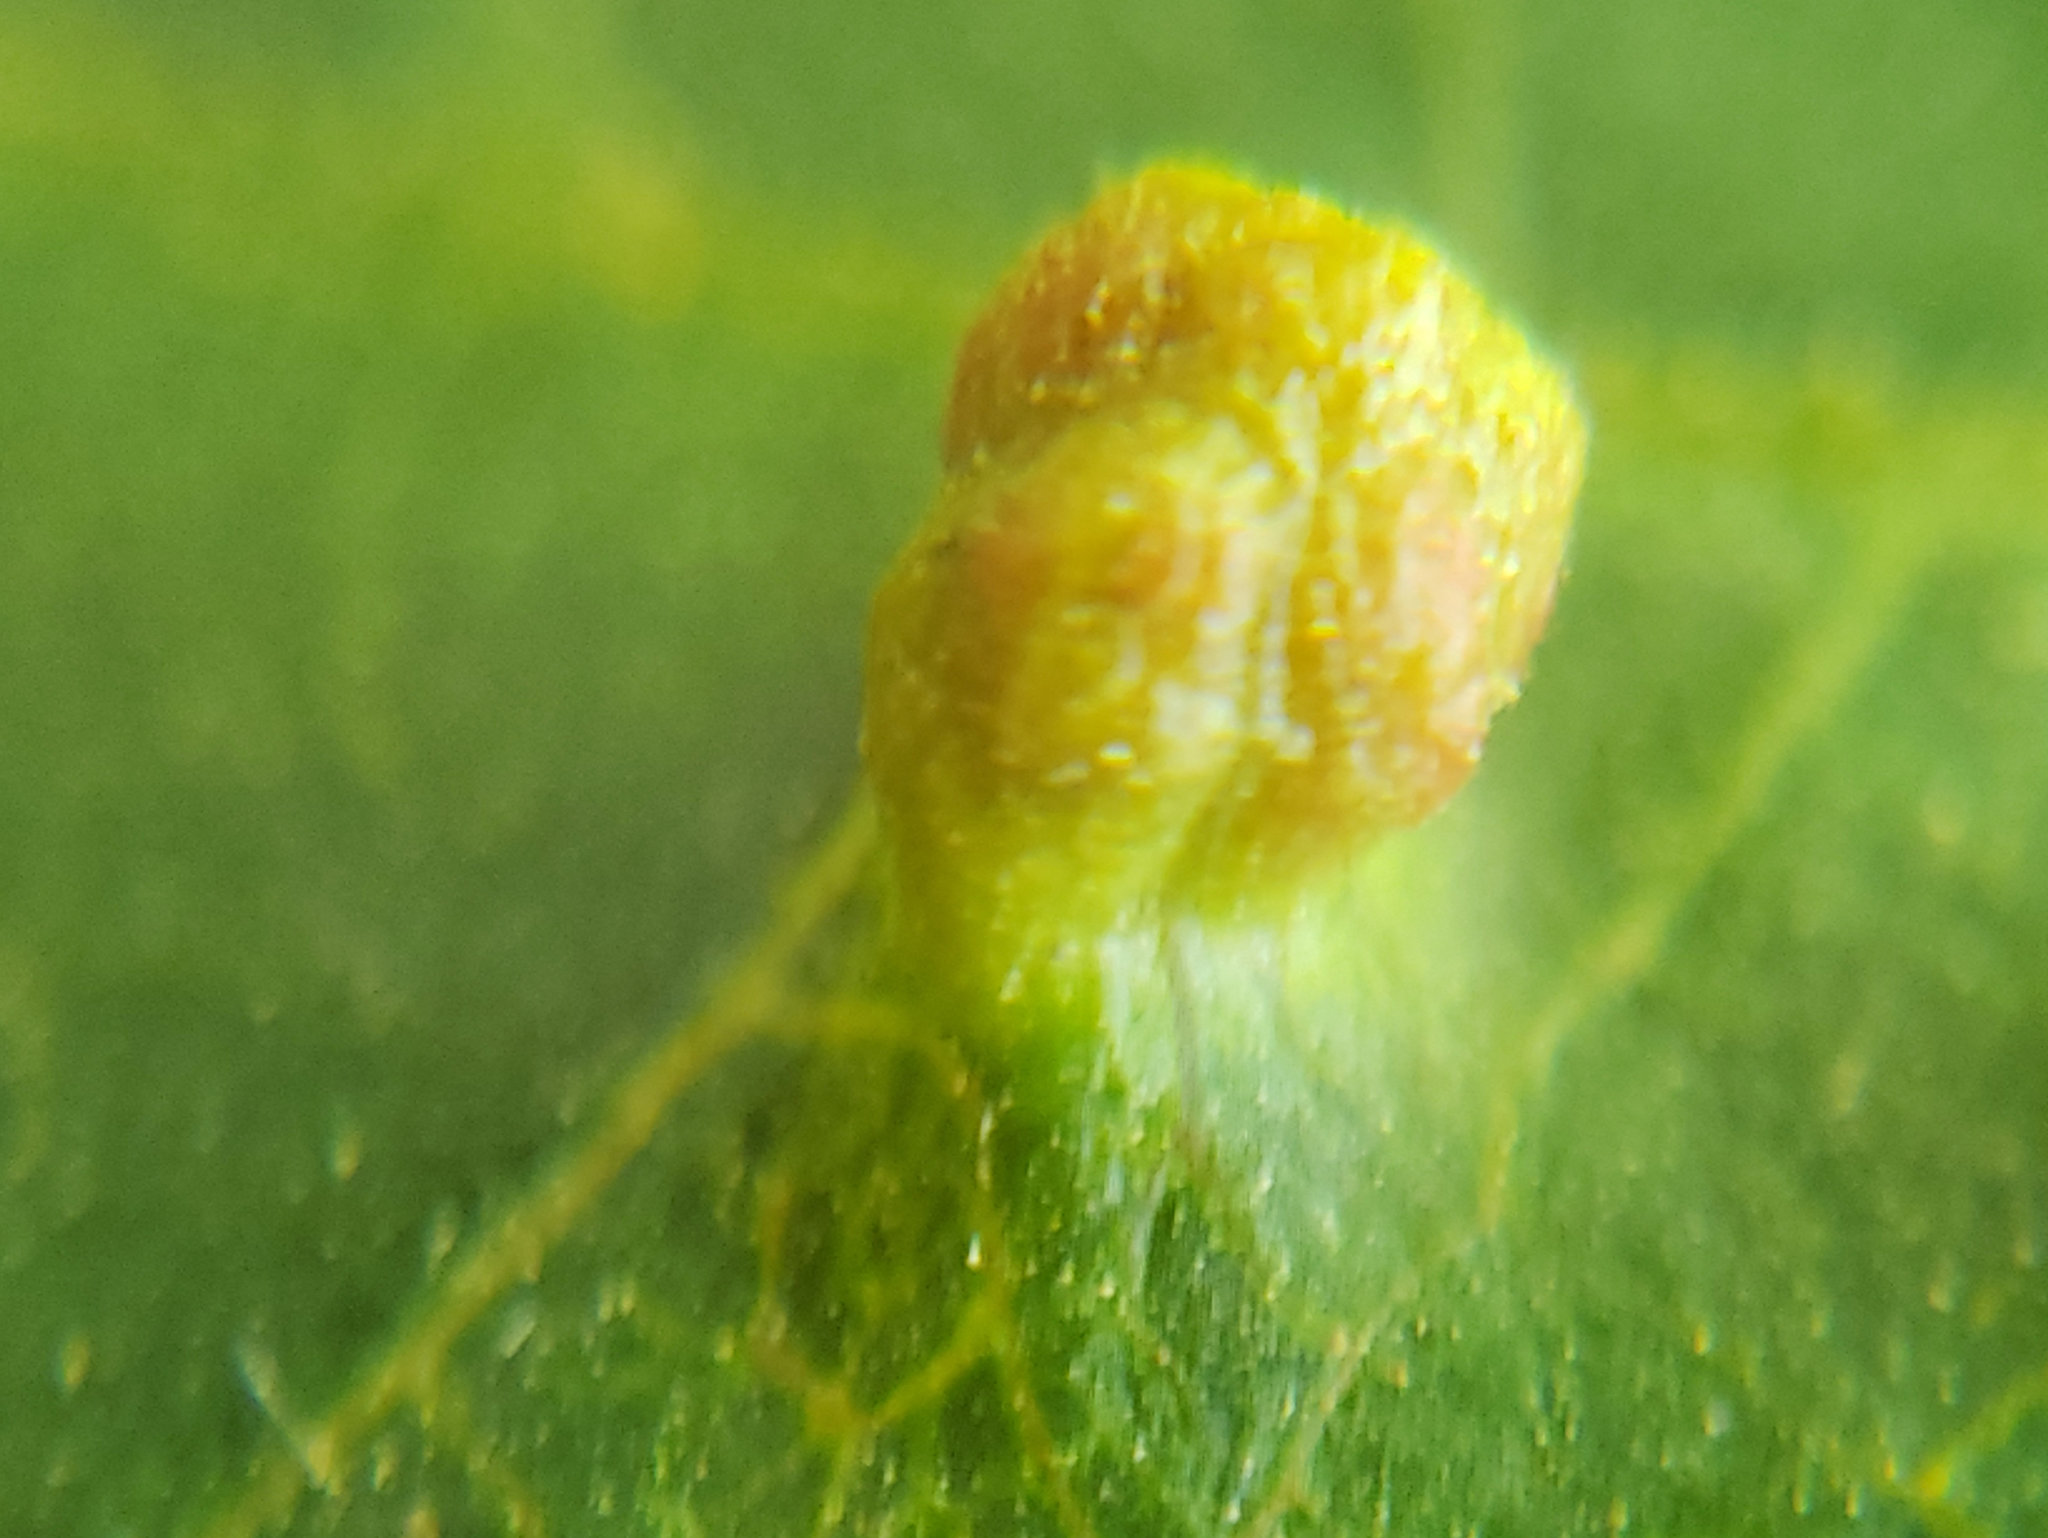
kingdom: Animalia
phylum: Arthropoda
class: Arachnida
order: Trombidiformes
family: Eriophyidae
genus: Aceria
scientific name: Aceria brachytarsus
